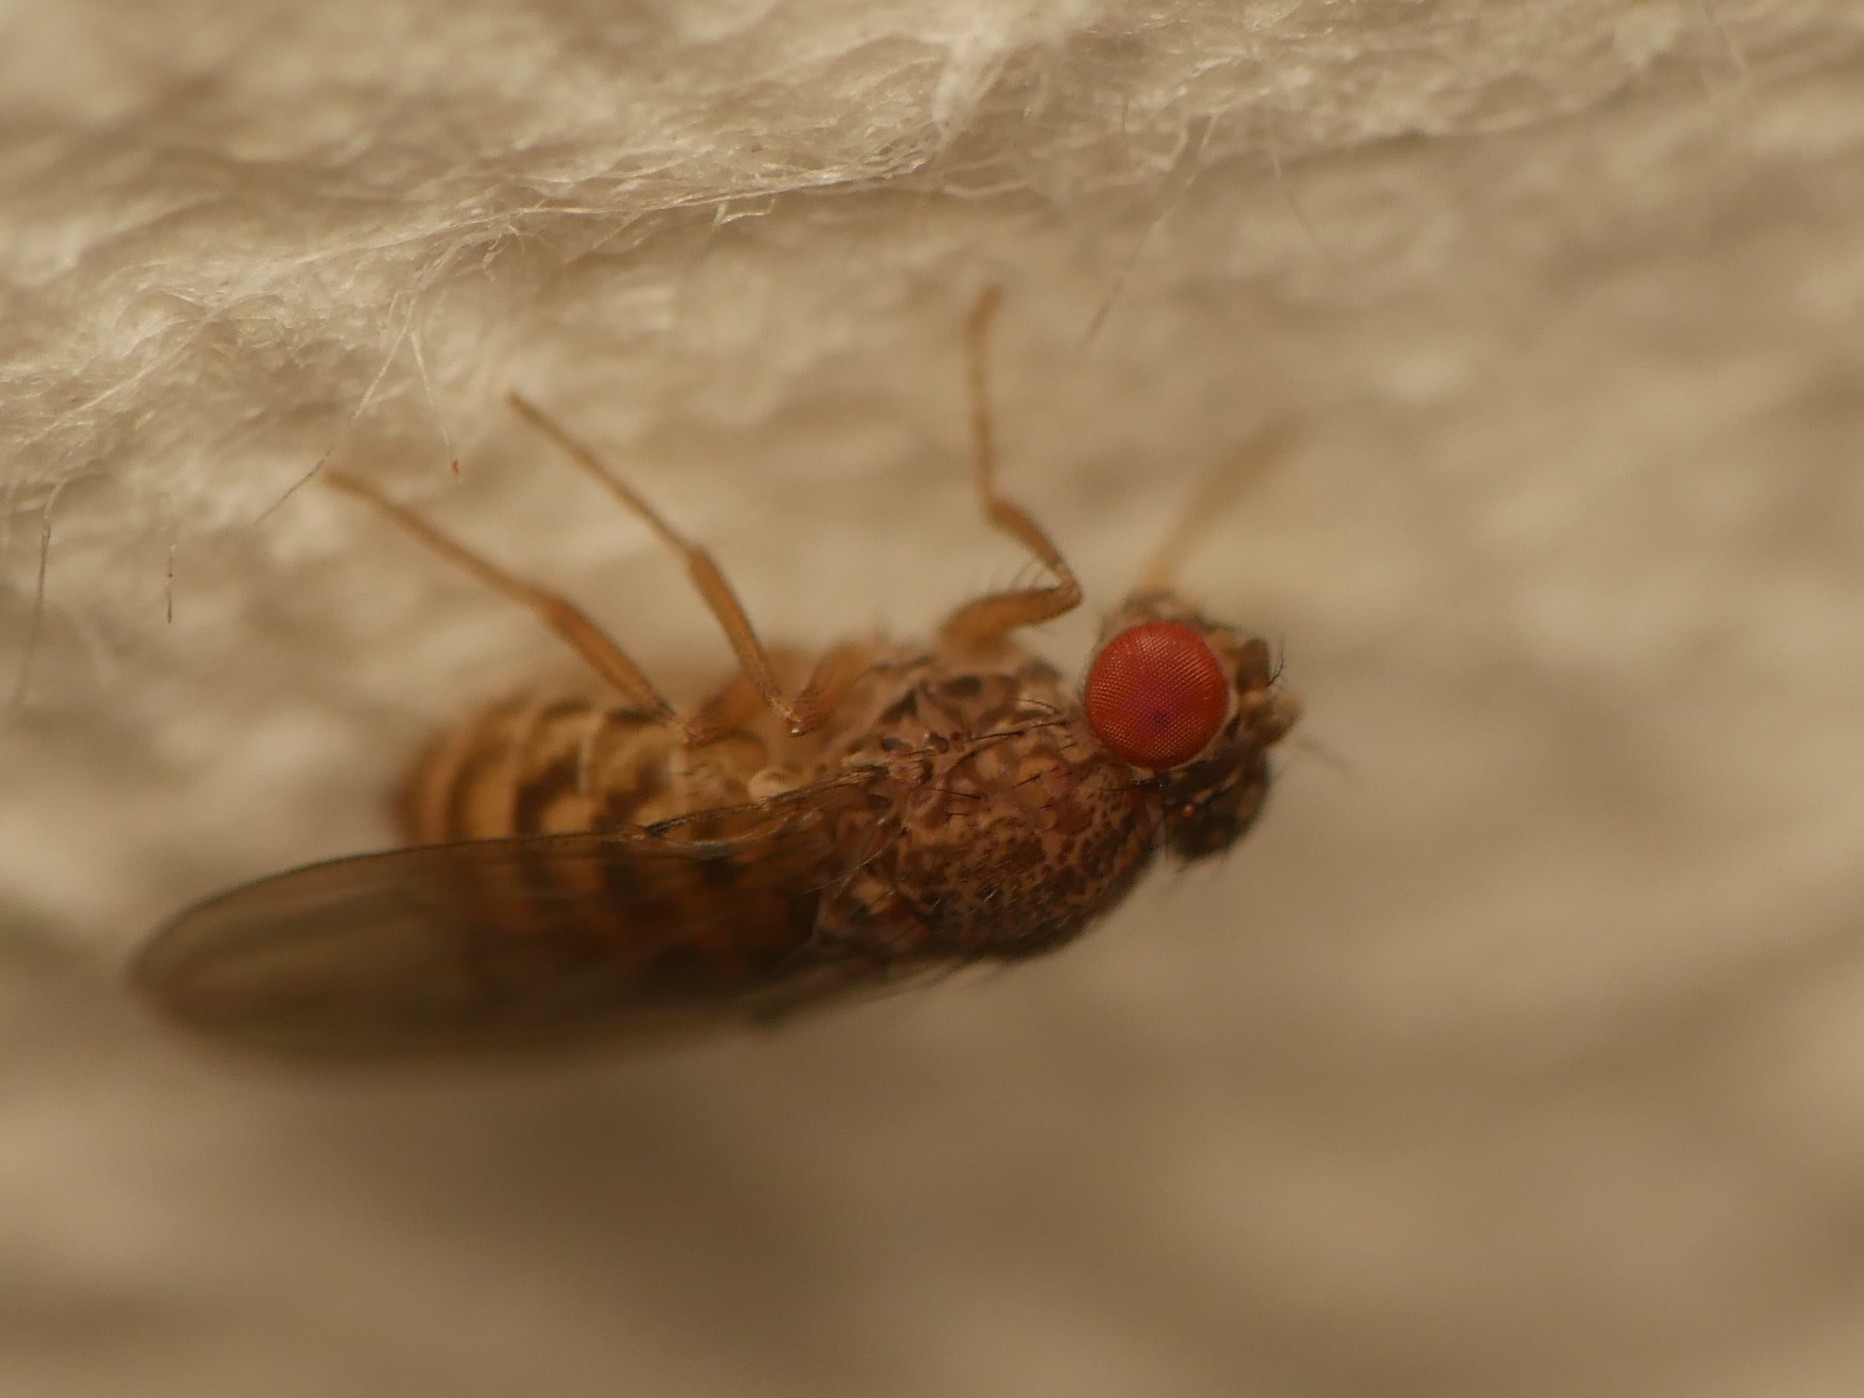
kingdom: Animalia
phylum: Arthropoda
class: Insecta
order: Diptera
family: Drosophilidae
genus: Drosophila
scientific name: Drosophila repleta
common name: Pomace fly
